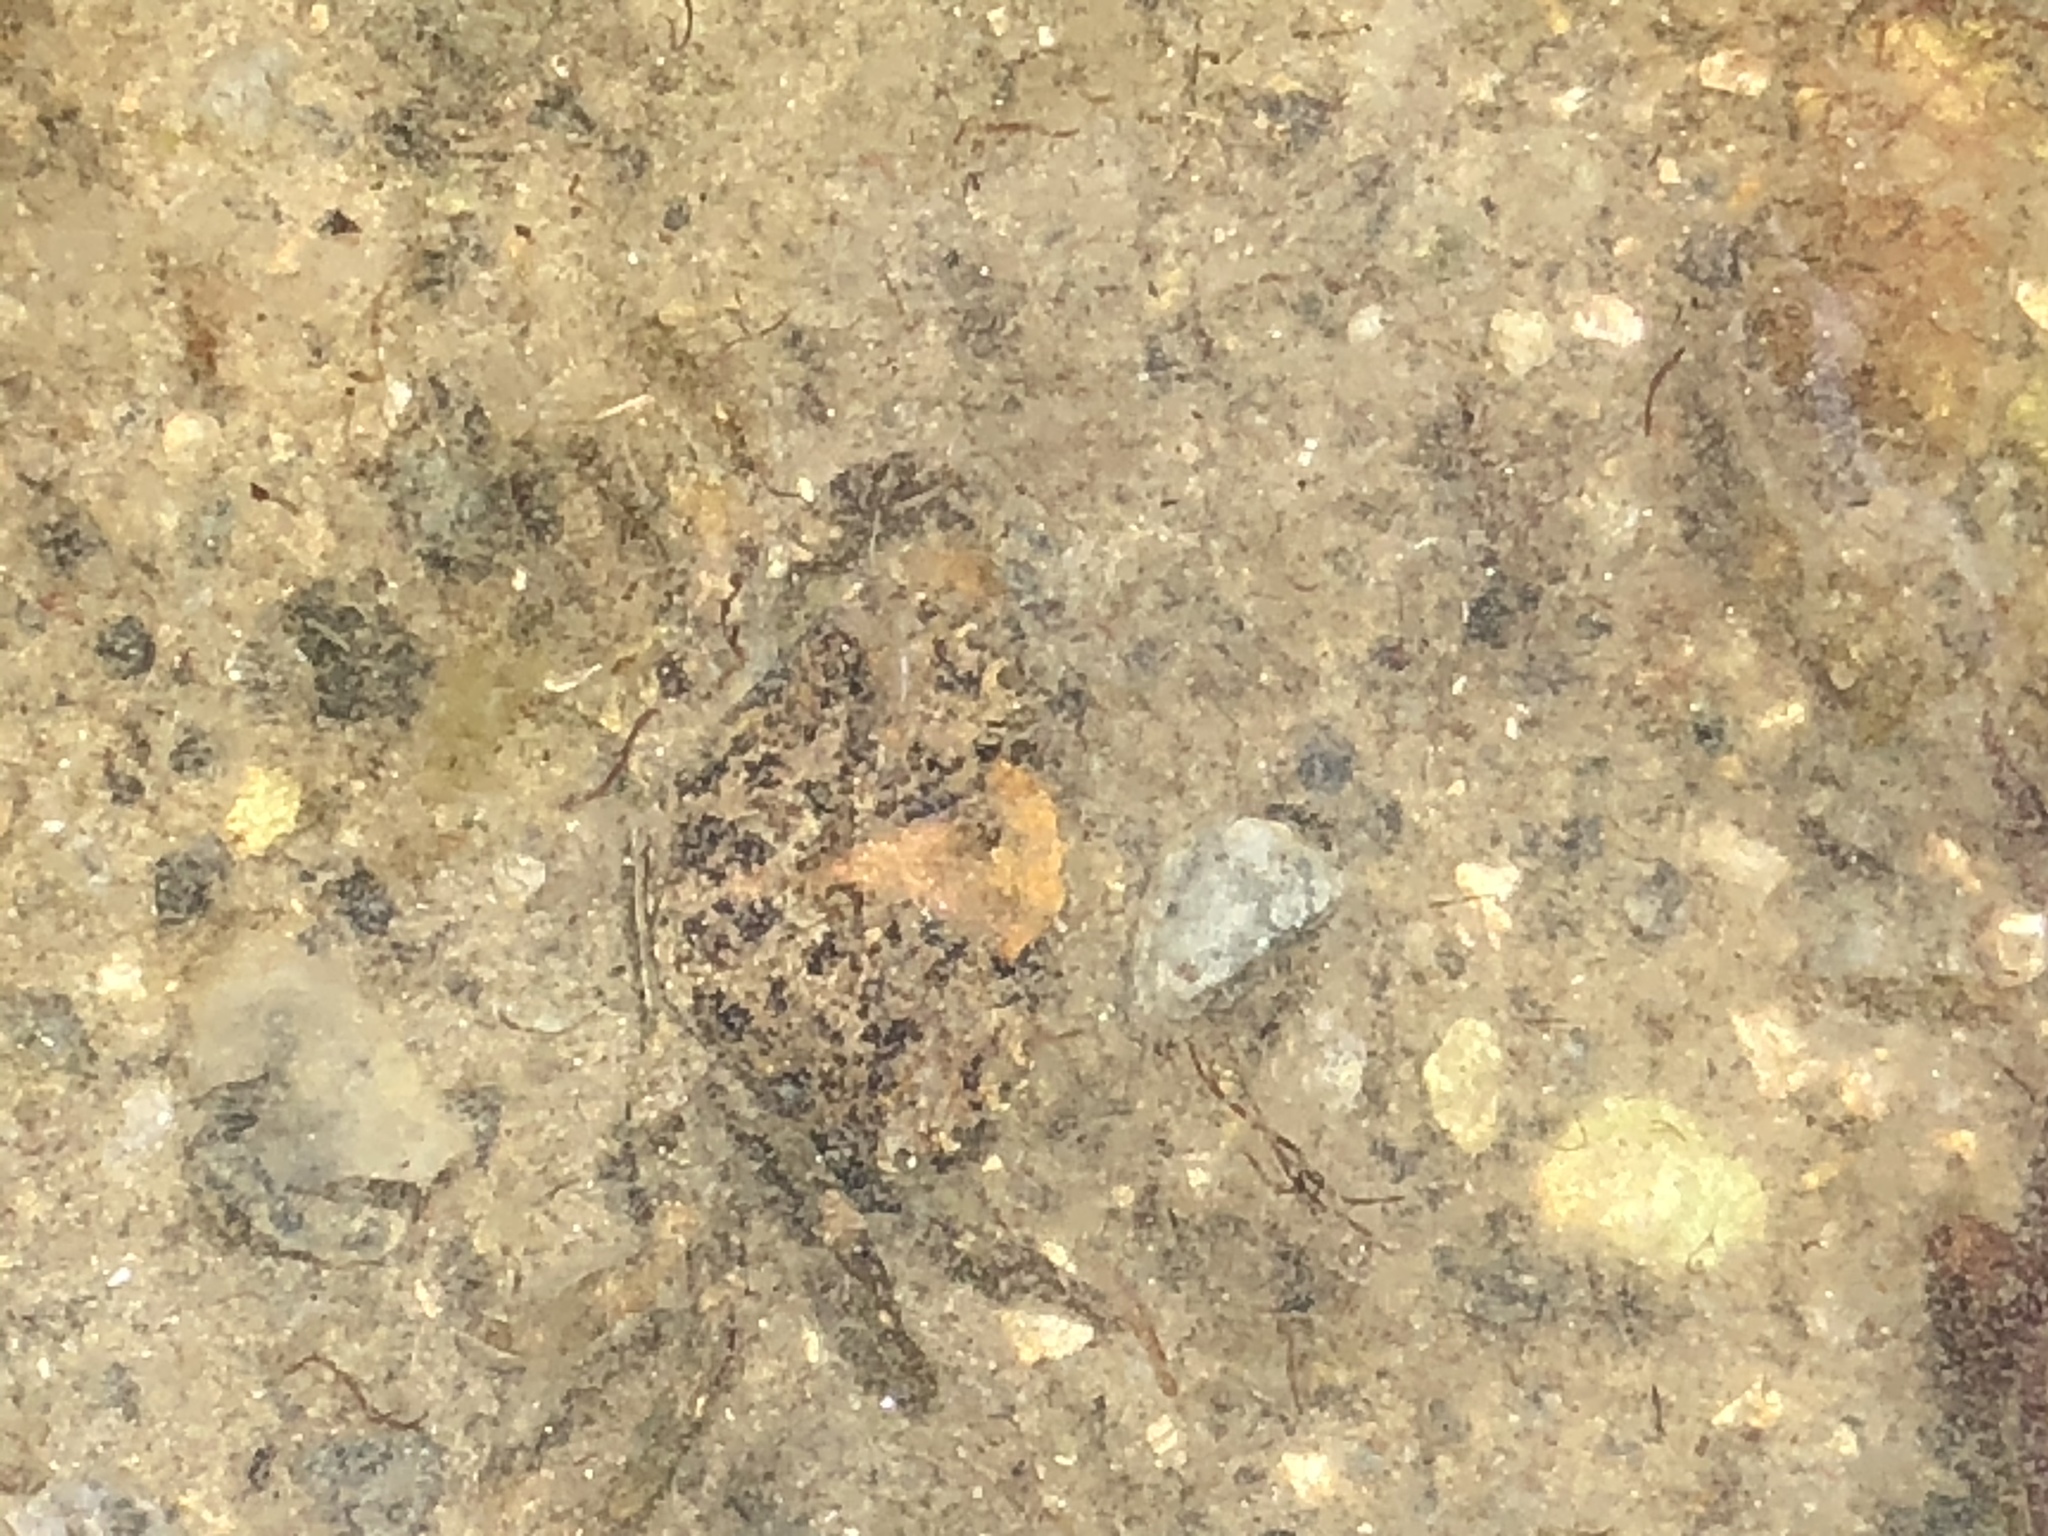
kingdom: Animalia
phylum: Arthropoda
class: Malacostraca
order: Decapoda
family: Carcinidae
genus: Carcinus
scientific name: Carcinus maenas
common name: European green crab
